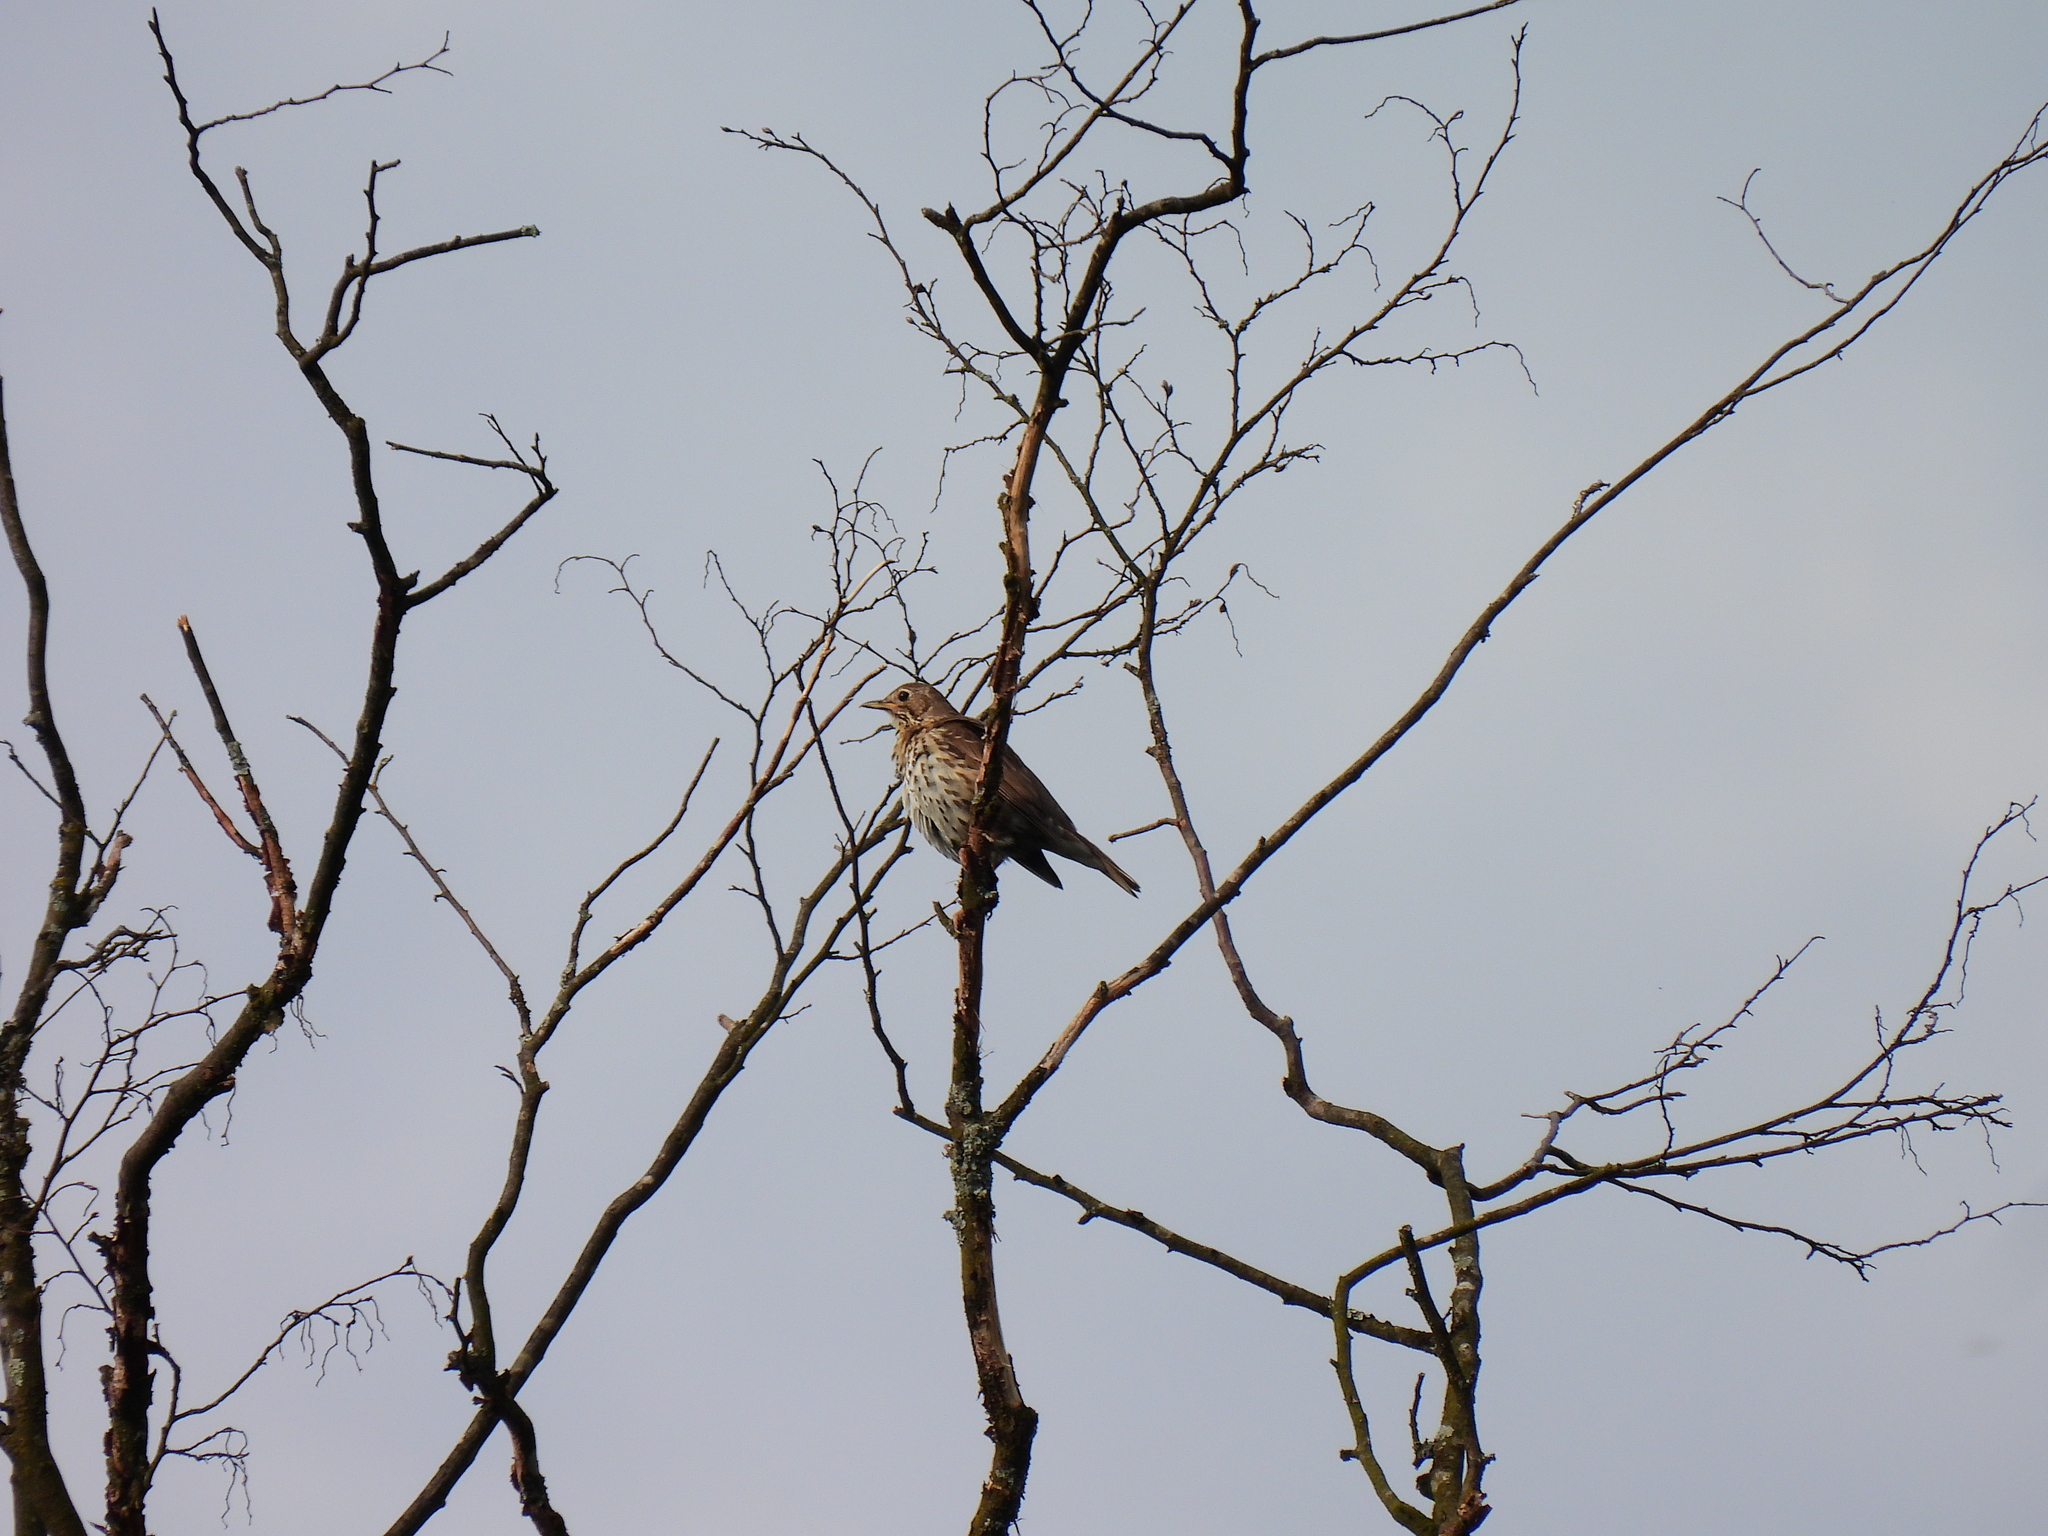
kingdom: Animalia
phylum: Chordata
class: Aves
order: Passeriformes
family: Turdidae
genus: Turdus
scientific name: Turdus philomelos
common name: Song thrush
